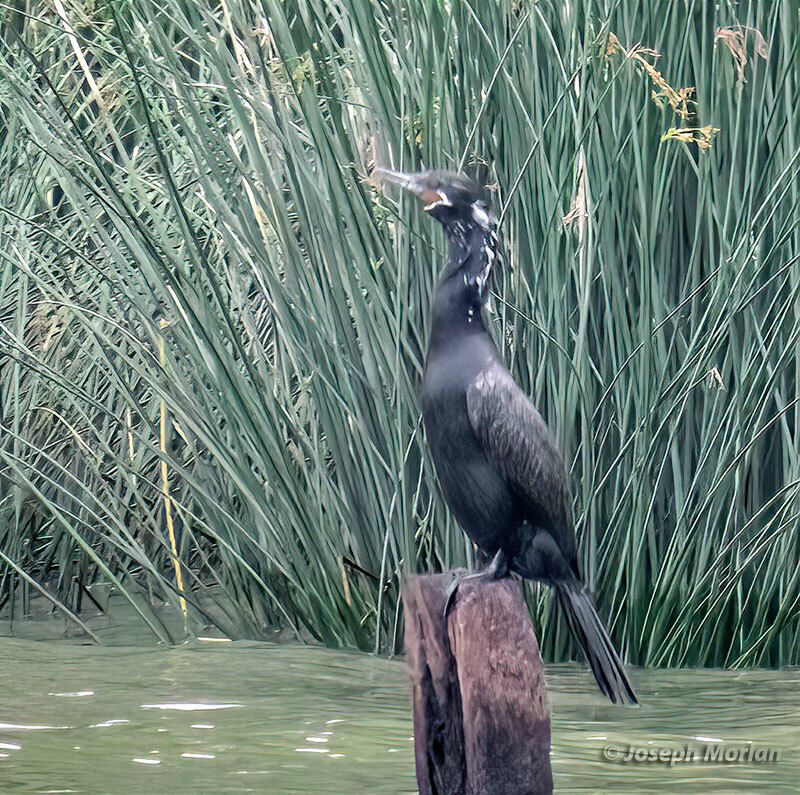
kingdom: Animalia
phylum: Chordata
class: Aves
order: Suliformes
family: Phalacrocoracidae
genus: Phalacrocorax
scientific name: Phalacrocorax brasilianus
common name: Neotropic cormorant
